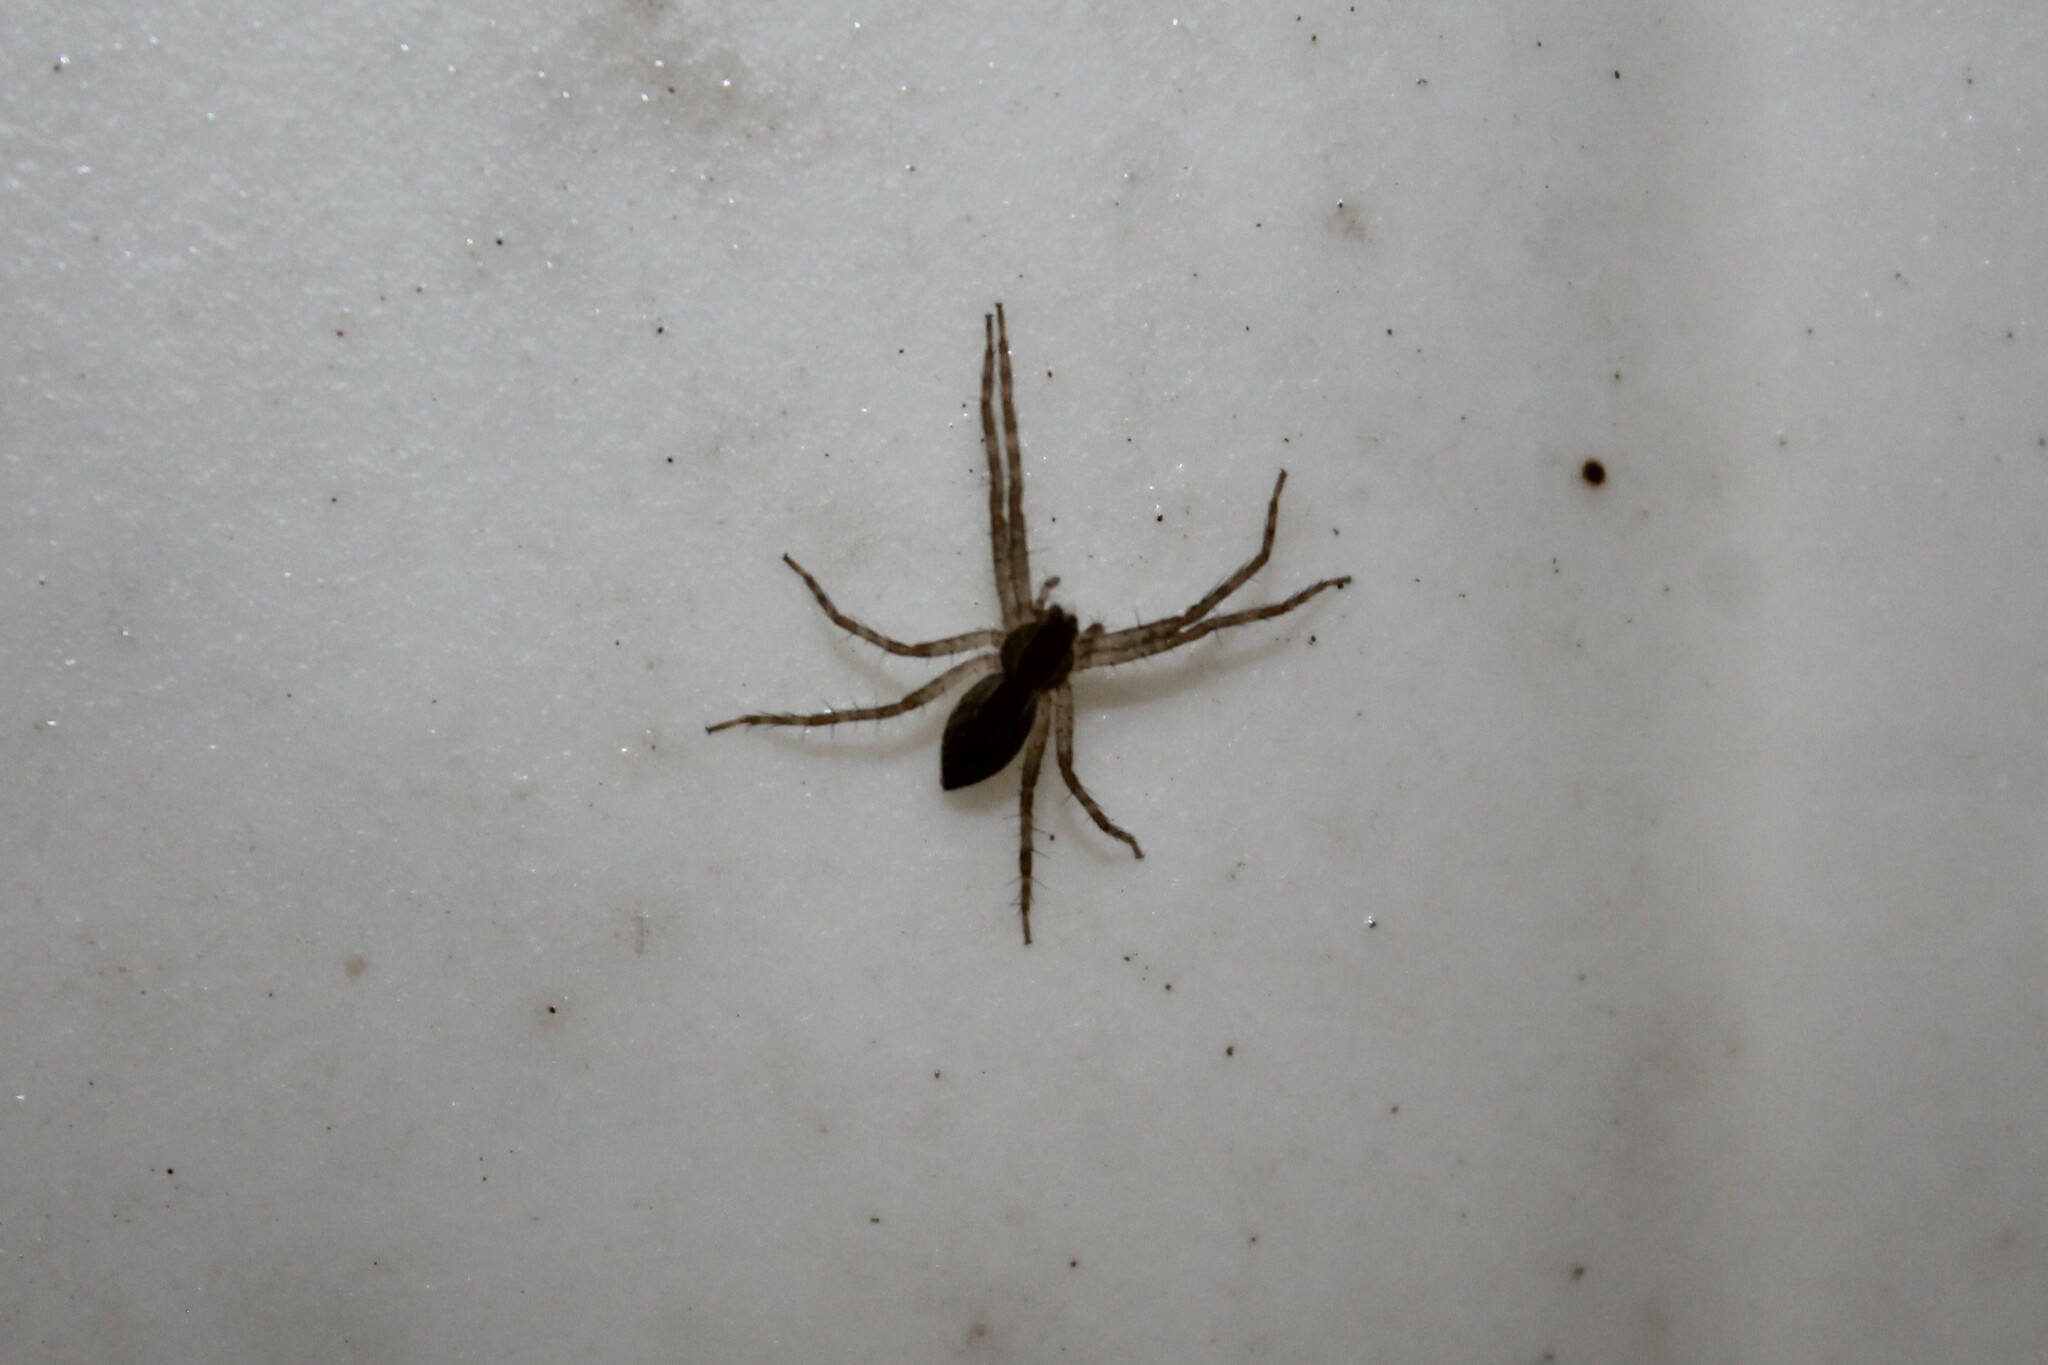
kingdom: Animalia
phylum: Arthropoda
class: Arachnida
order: Araneae
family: Pisauridae
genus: Pisaurina
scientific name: Pisaurina mira
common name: American nursery web spider
